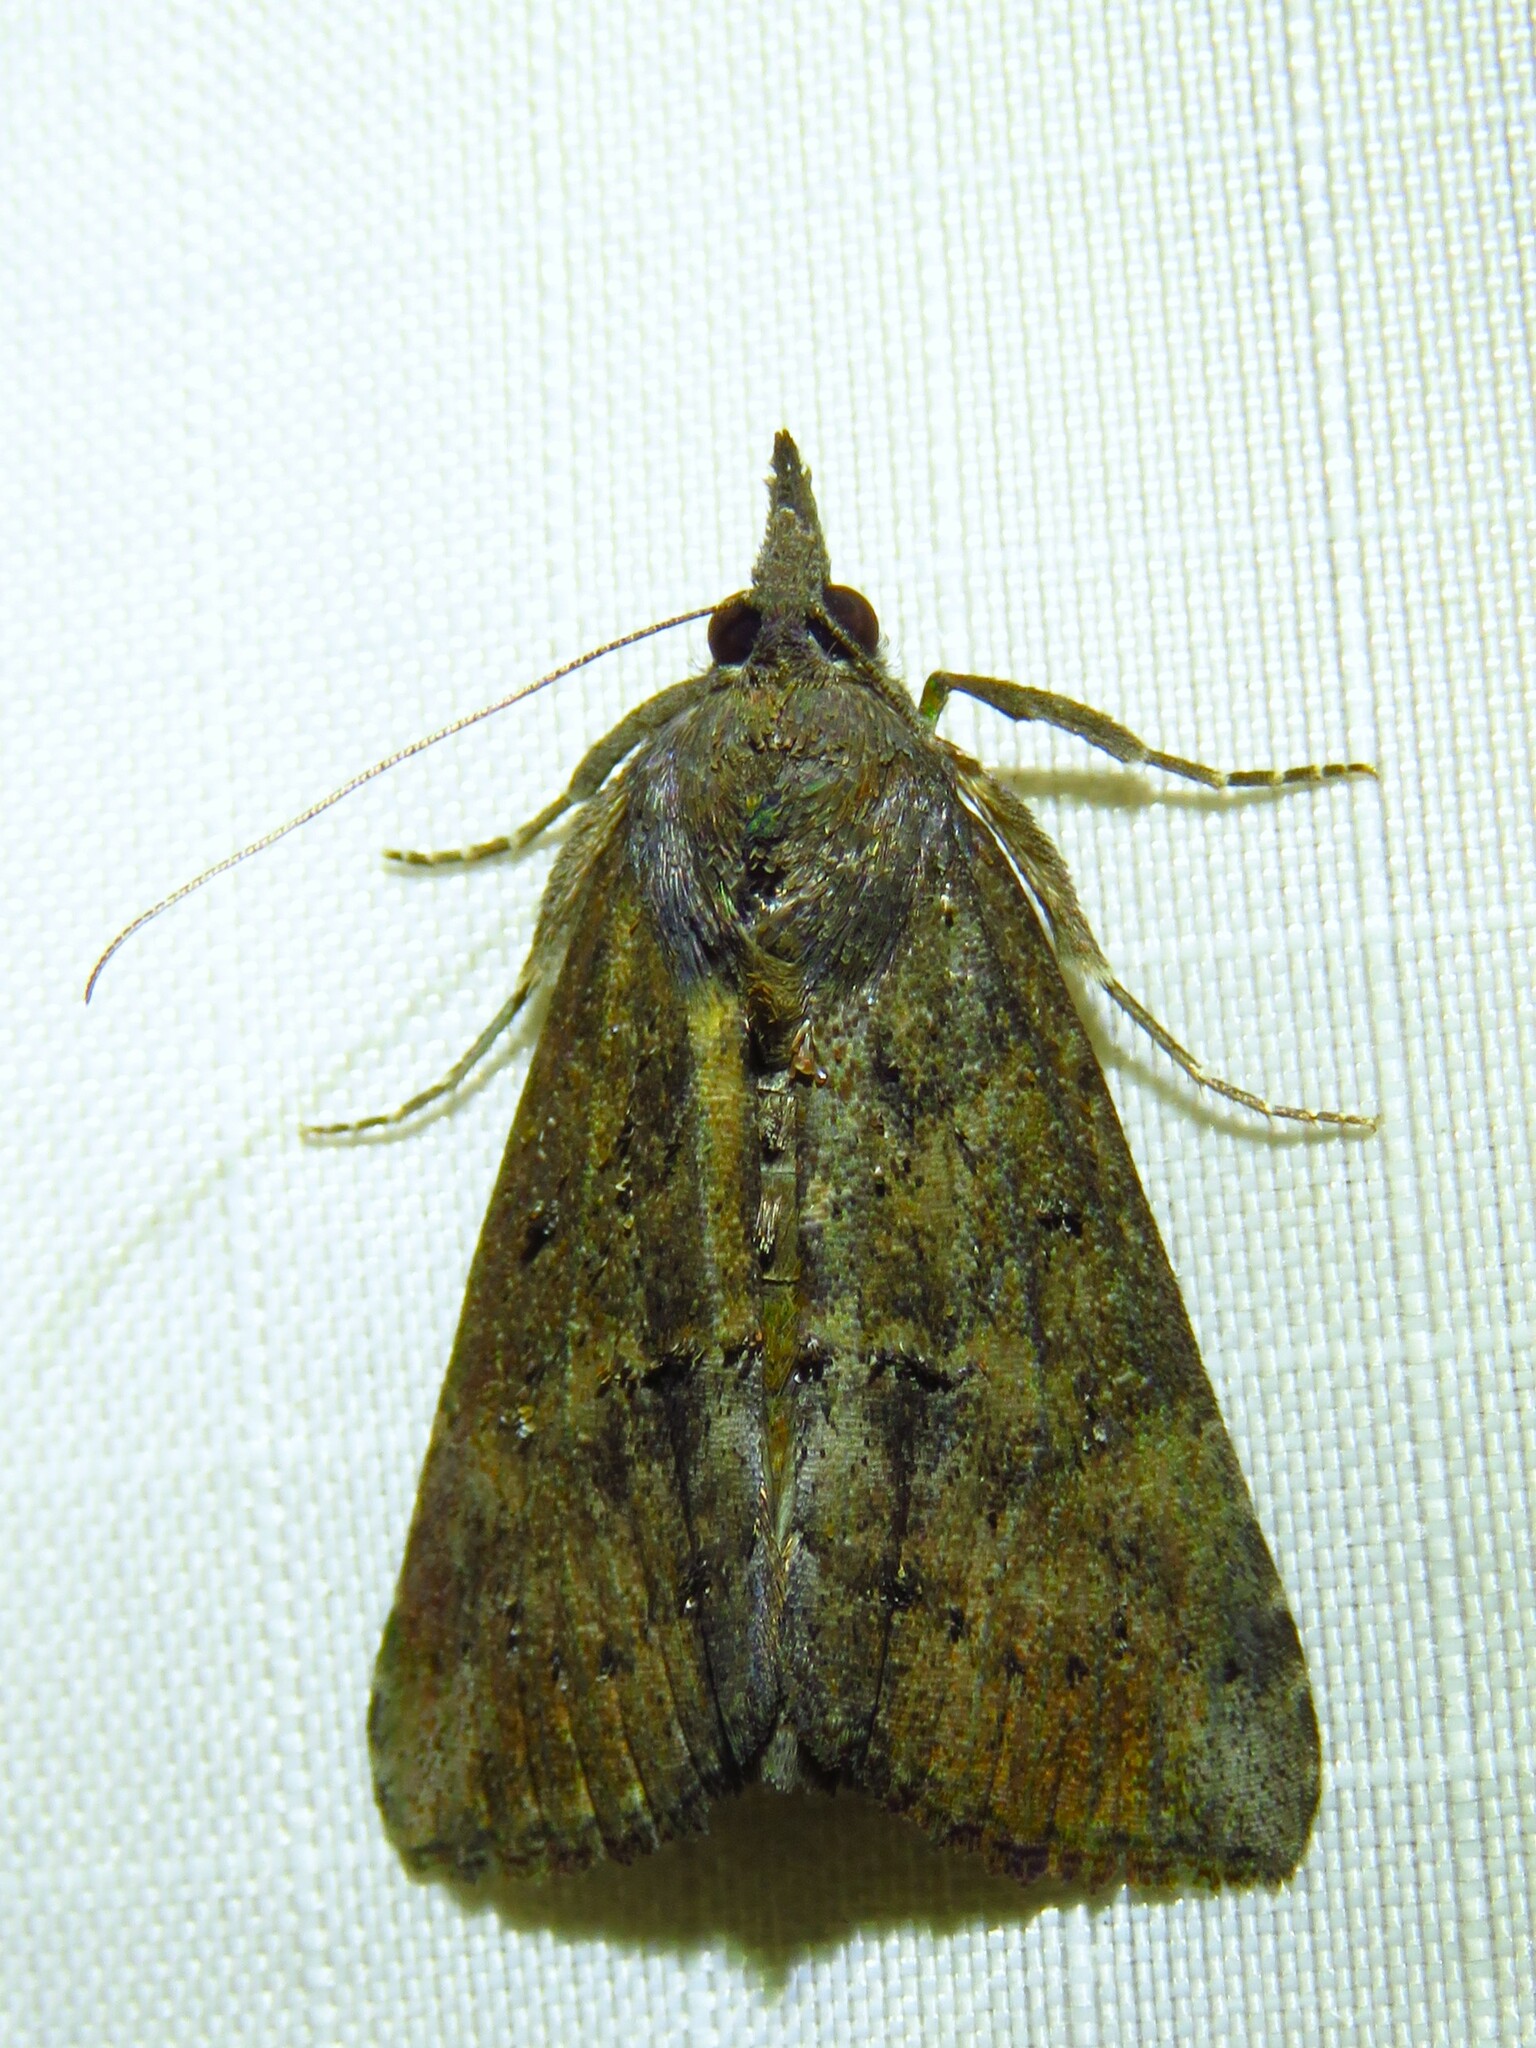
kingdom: Animalia
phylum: Arthropoda
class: Insecta
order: Lepidoptera
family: Erebidae
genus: Hypena
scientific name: Hypena scabra
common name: Green cloverworm
